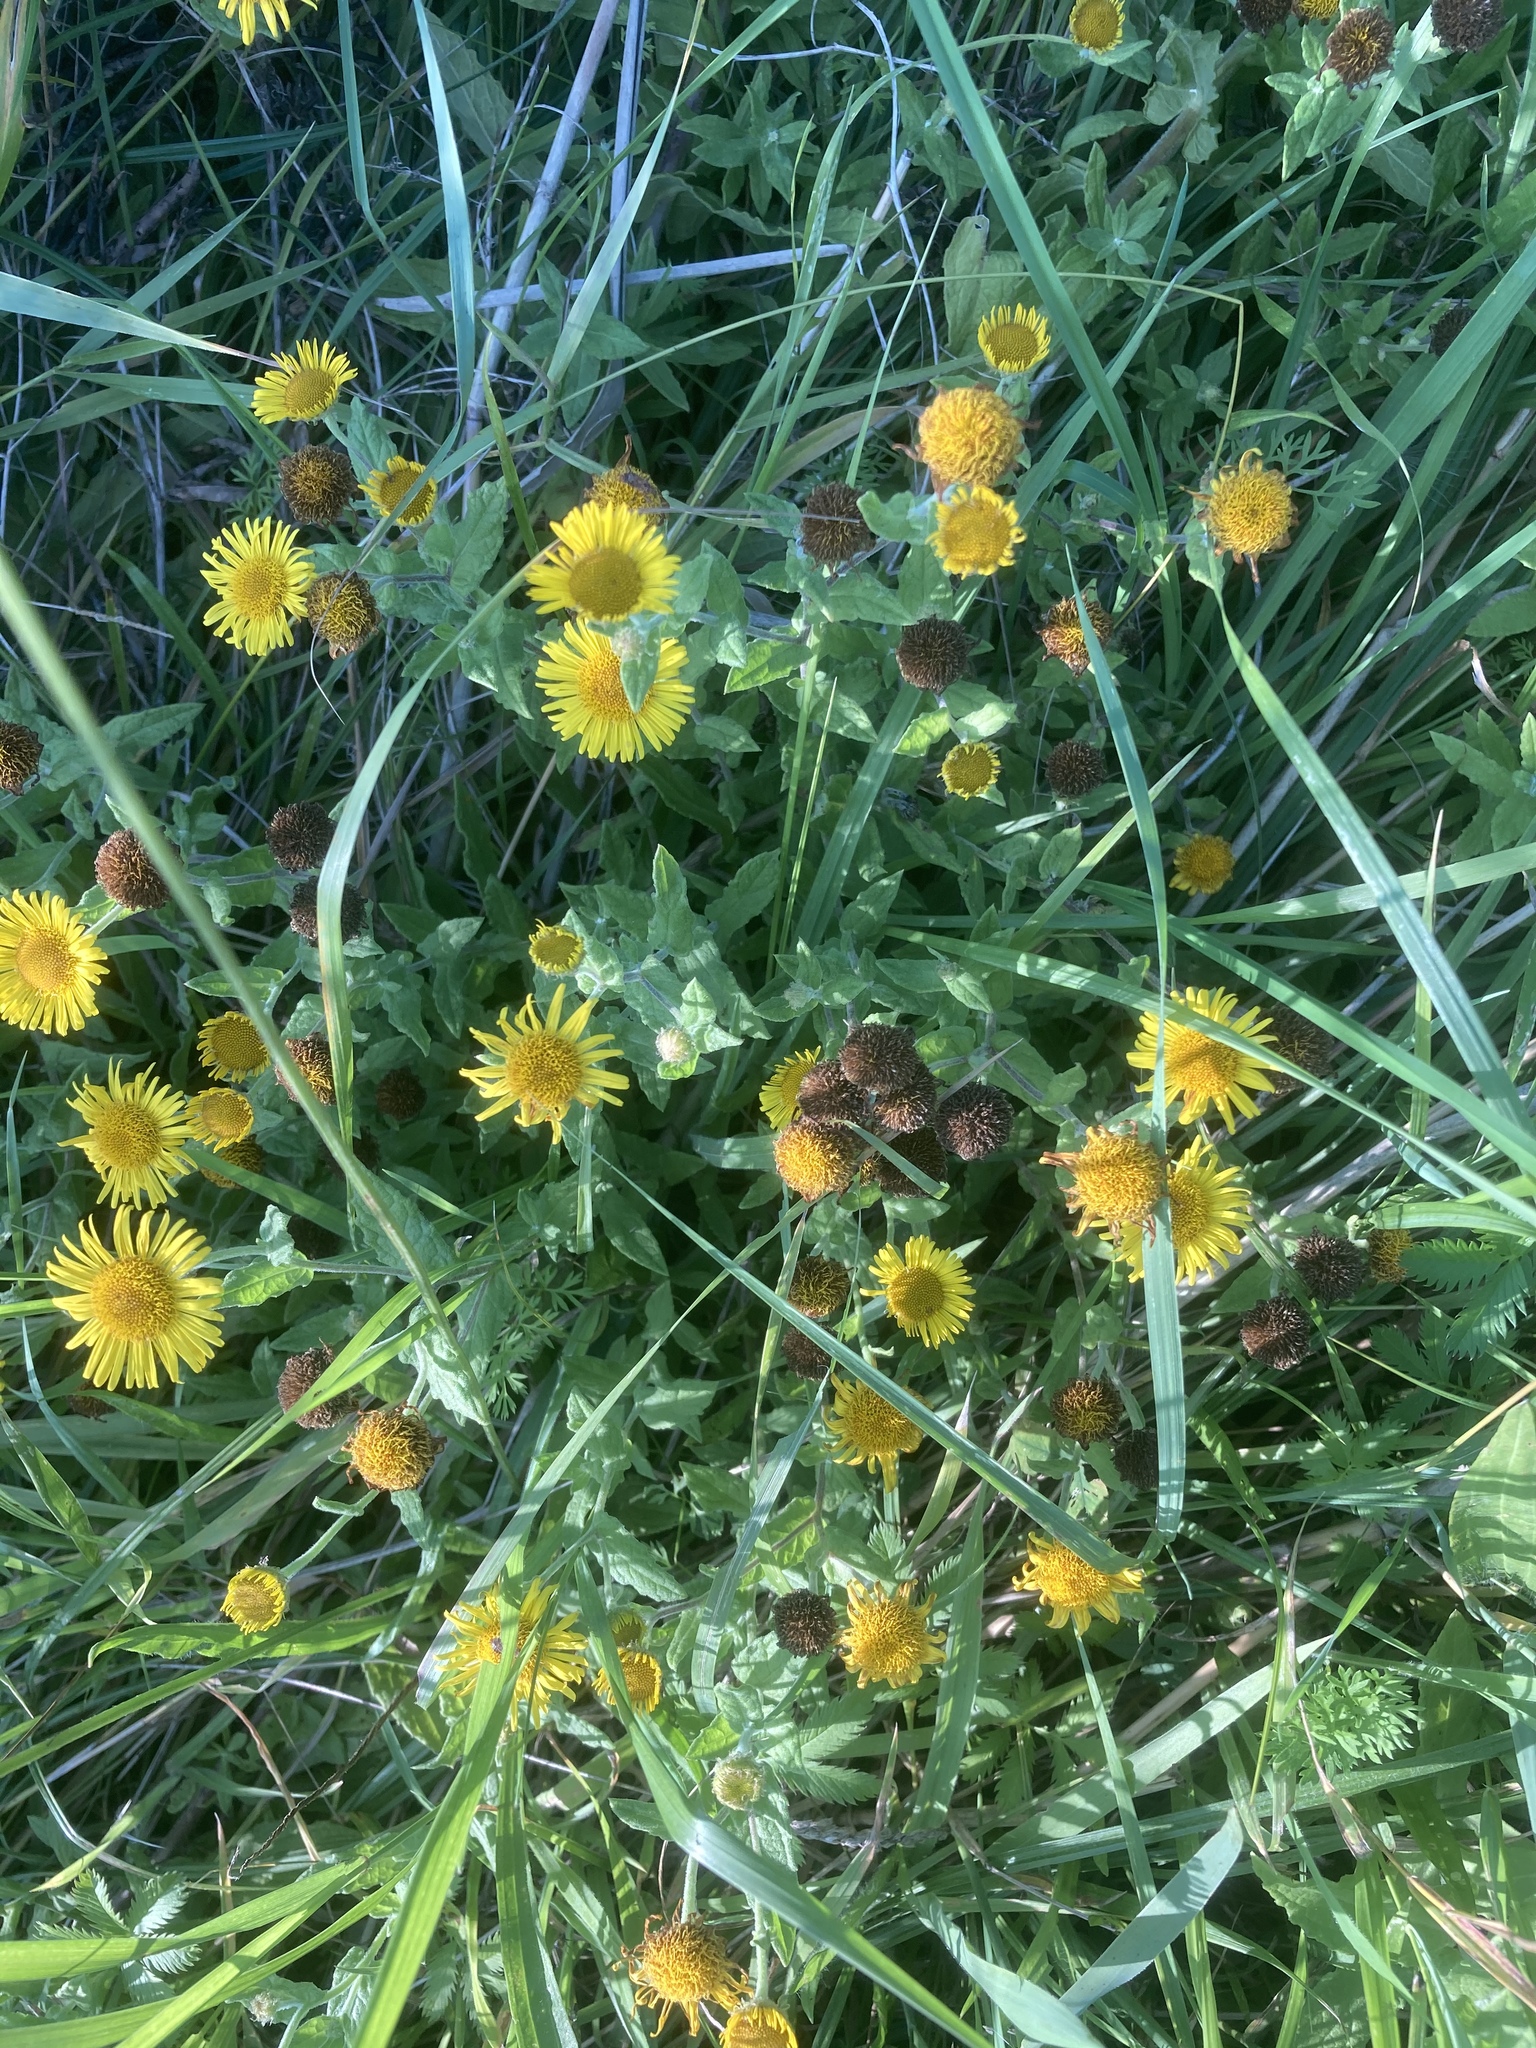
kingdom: Plantae
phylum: Tracheophyta
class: Magnoliopsida
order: Asterales
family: Asteraceae
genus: Pulicaria
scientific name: Pulicaria dysenterica
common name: Common fleabane
